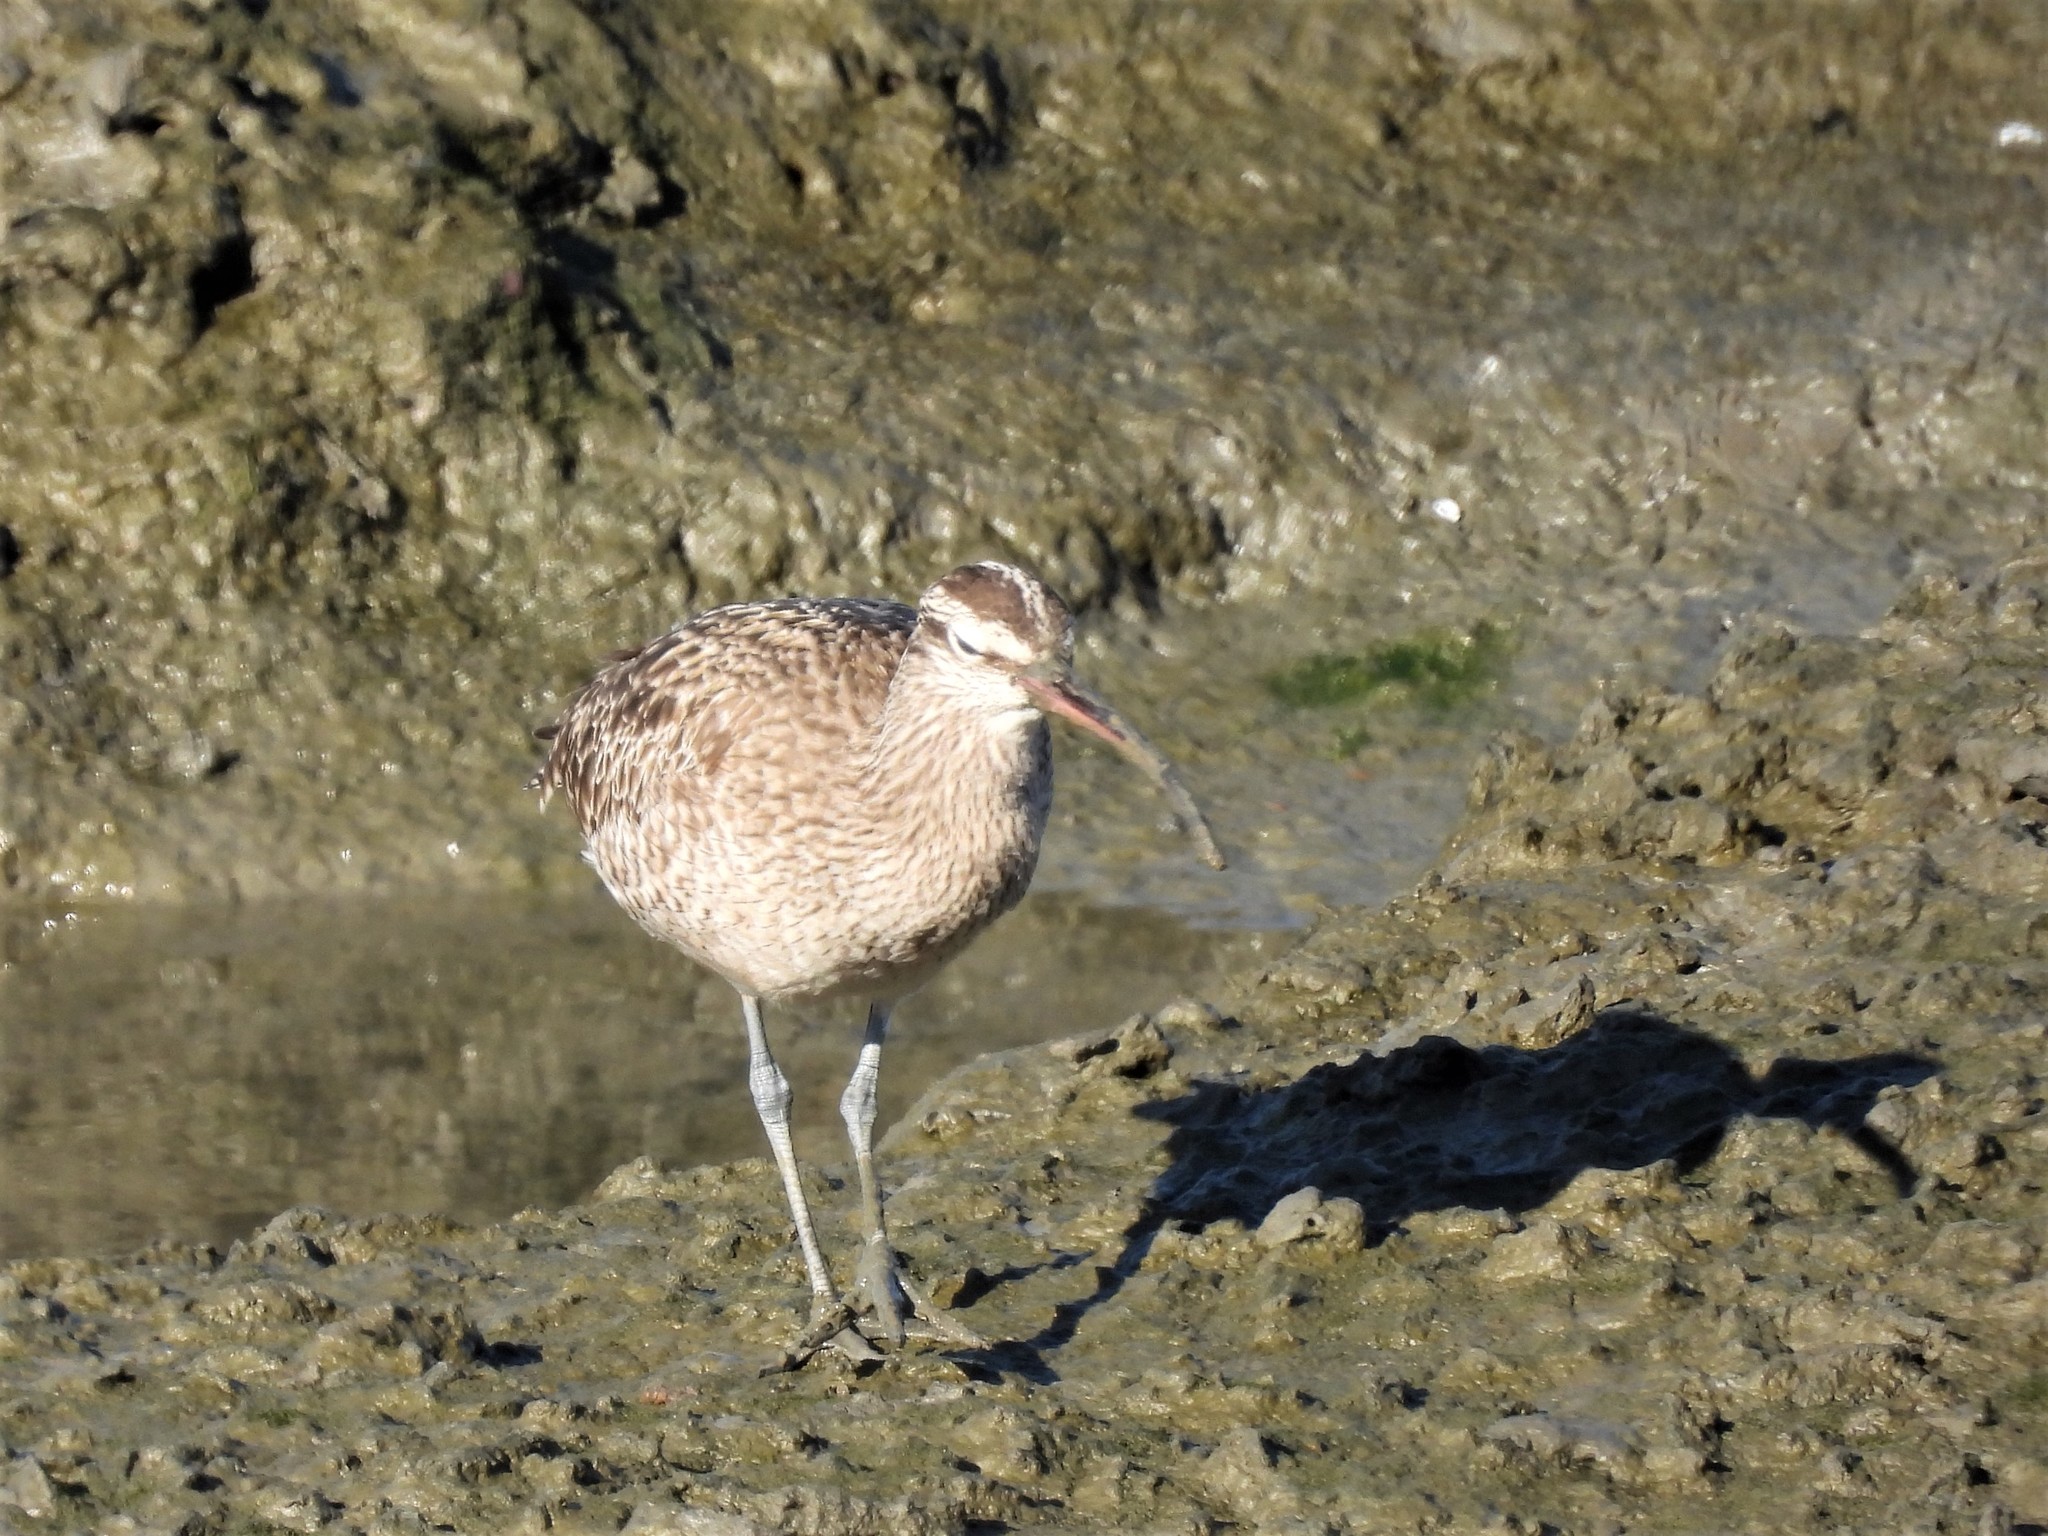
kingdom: Animalia
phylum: Chordata
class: Aves
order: Charadriiformes
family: Scolopacidae
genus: Numenius
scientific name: Numenius phaeopus
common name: Whimbrel
